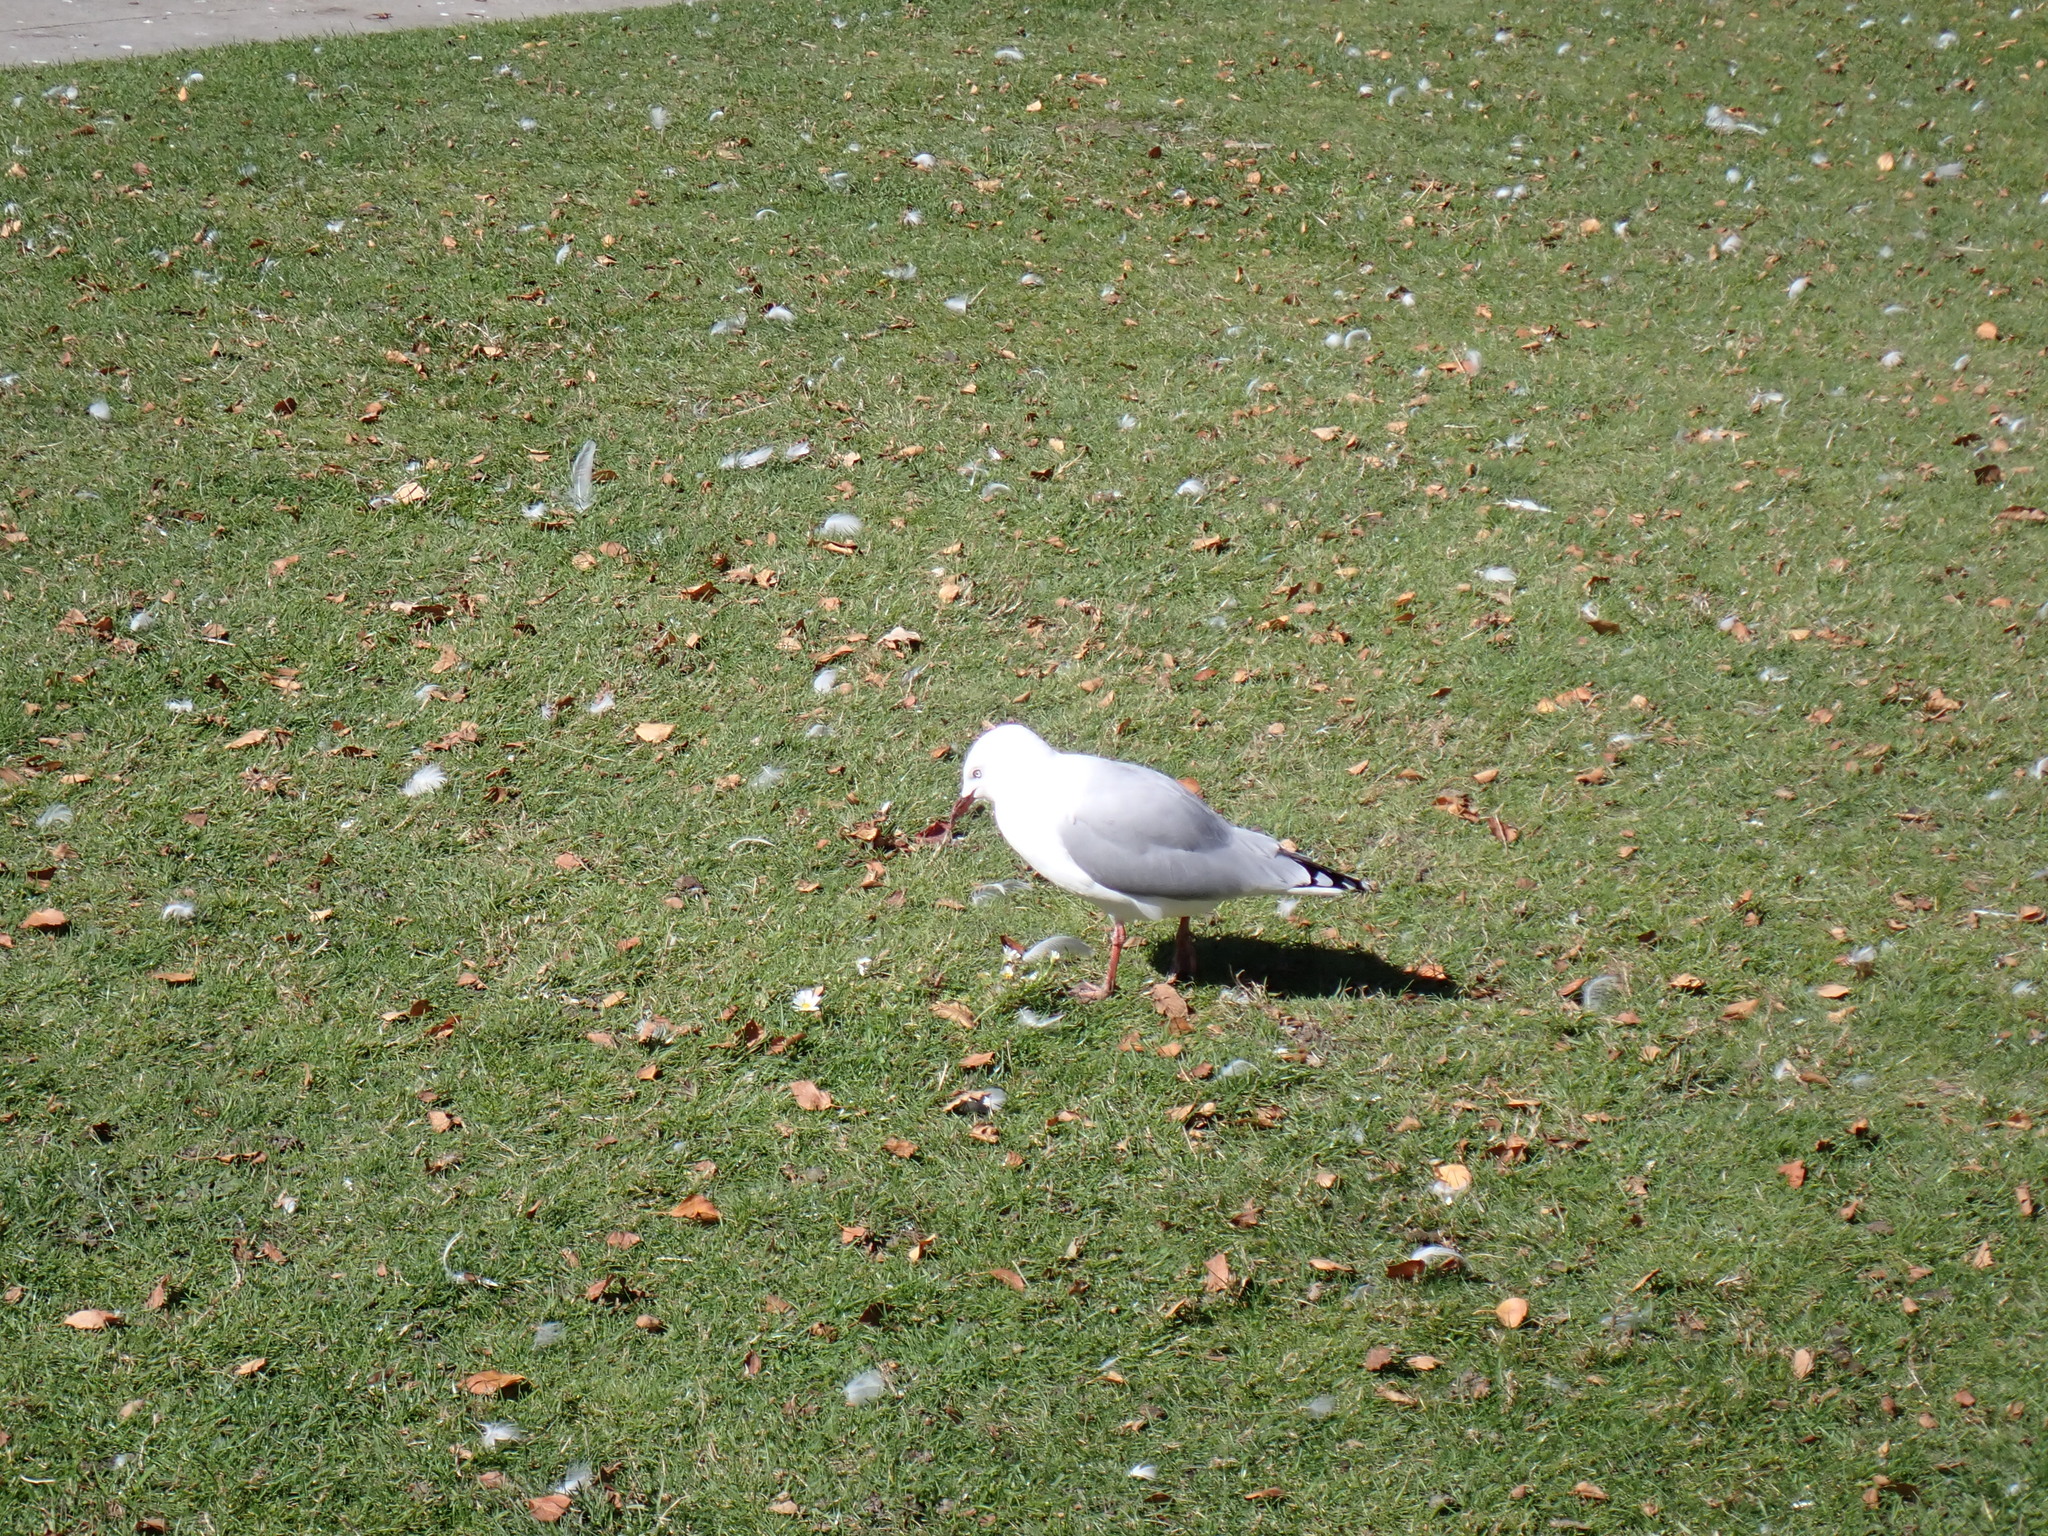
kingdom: Animalia
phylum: Chordata
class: Aves
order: Charadriiformes
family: Laridae
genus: Chroicocephalus
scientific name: Chroicocephalus novaehollandiae
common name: Silver gull
